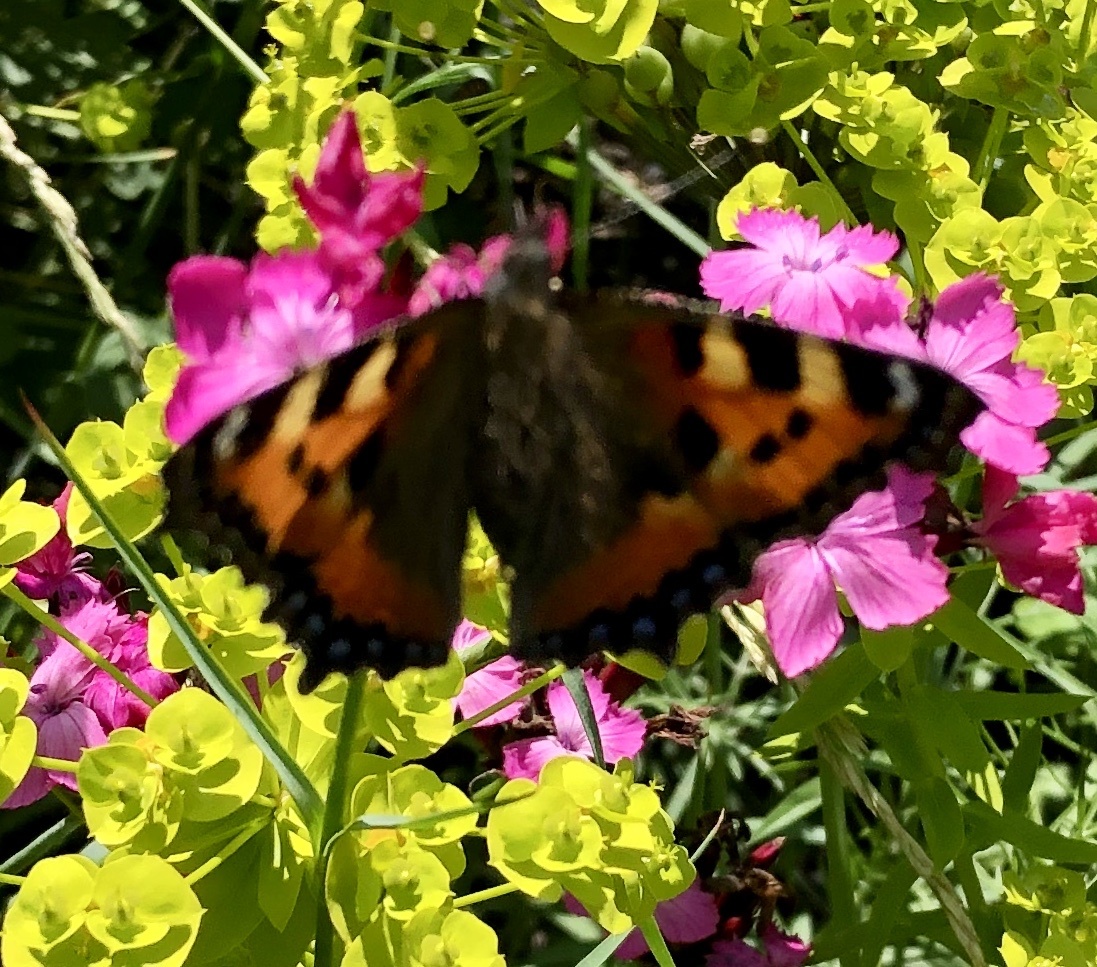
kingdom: Animalia
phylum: Arthropoda
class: Insecta
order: Lepidoptera
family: Nymphalidae
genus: Aglais
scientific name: Aglais urticae
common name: Small tortoiseshell
